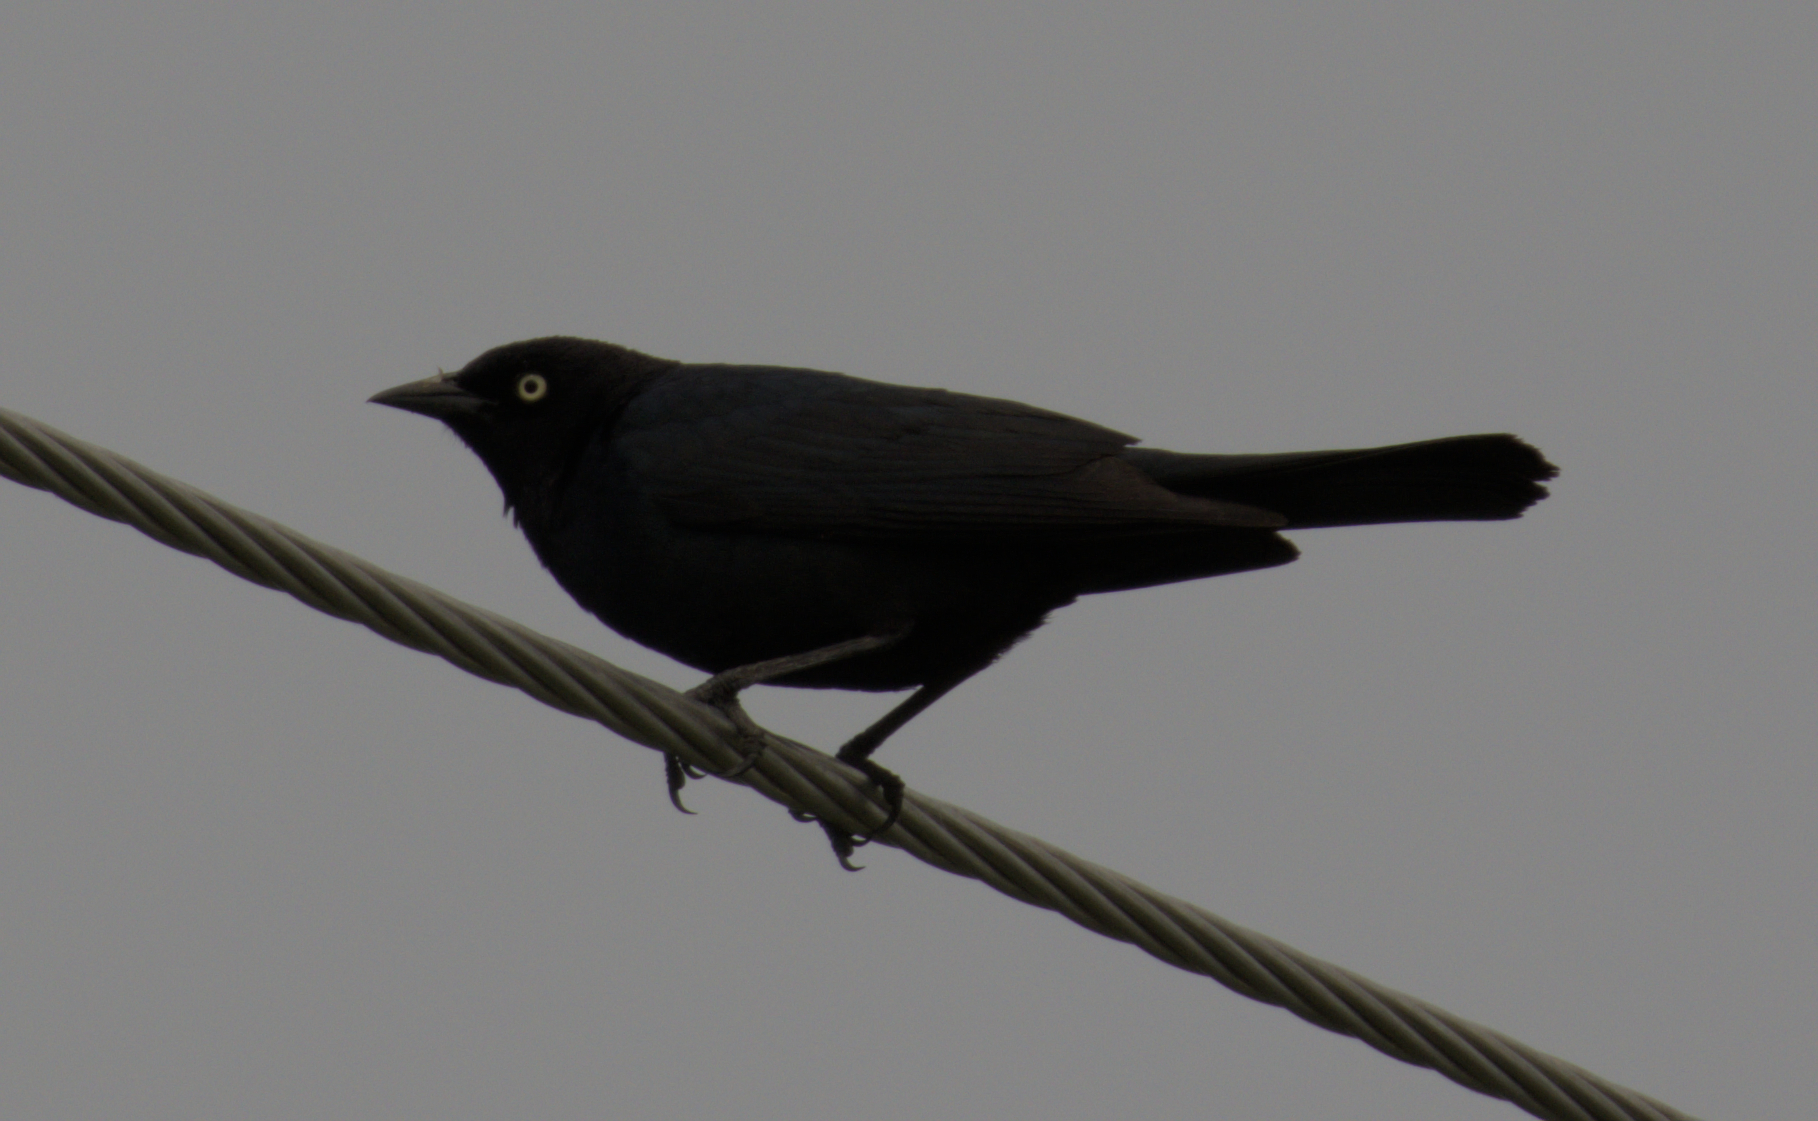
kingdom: Animalia
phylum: Chordata
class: Aves
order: Passeriformes
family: Icteridae
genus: Euphagus
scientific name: Euphagus cyanocephalus
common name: Brewer's blackbird
